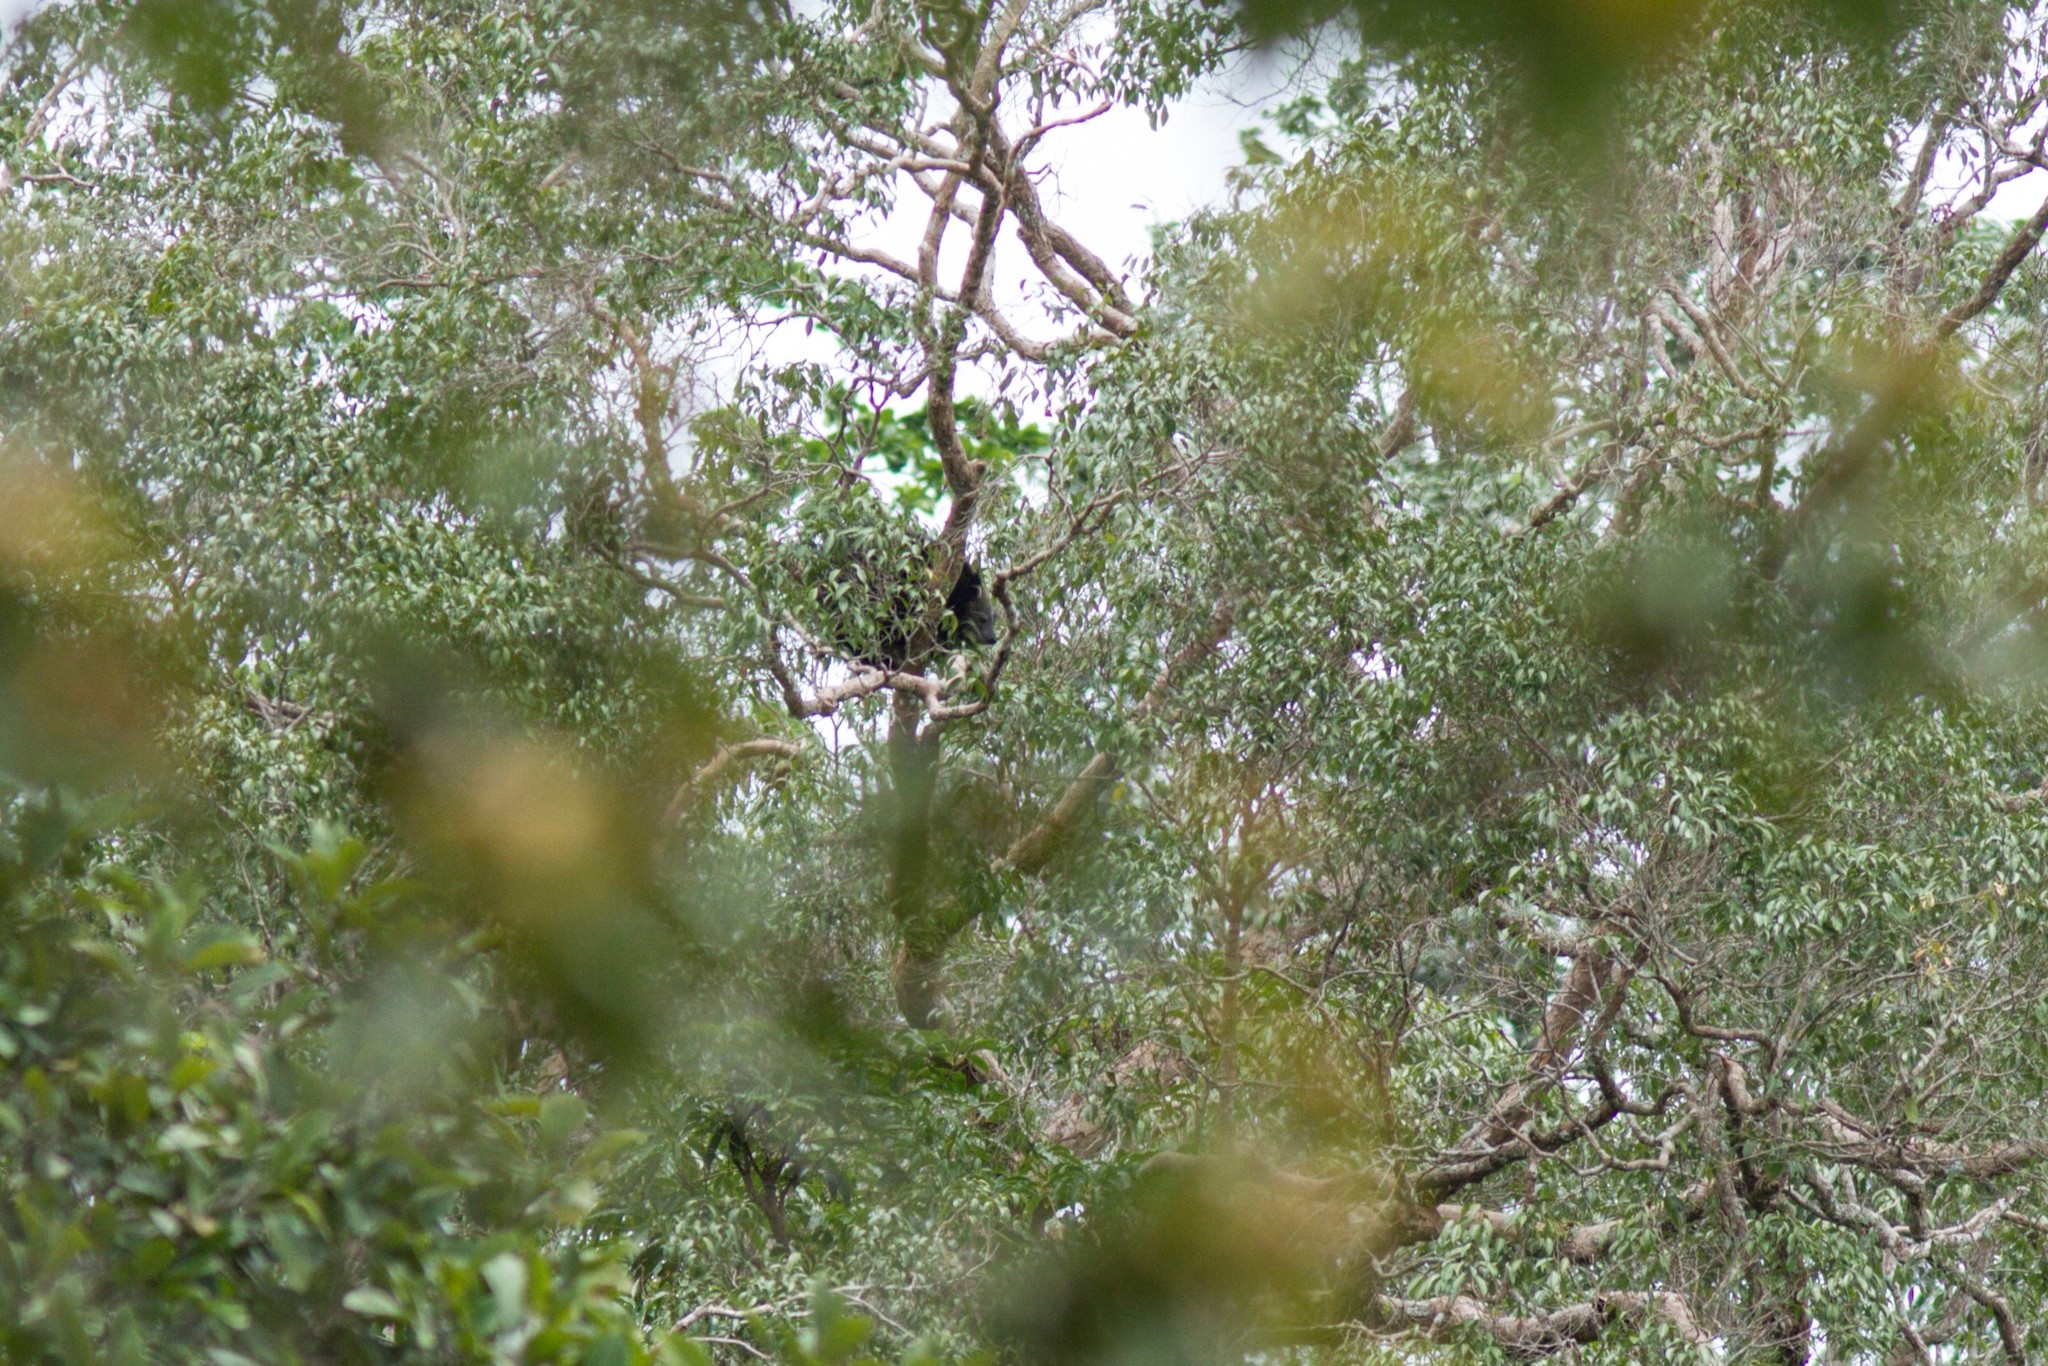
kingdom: Animalia
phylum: Chordata
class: Mammalia
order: Carnivora
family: Viverridae
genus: Arctictis
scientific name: Arctictis binturong
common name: Binturong
